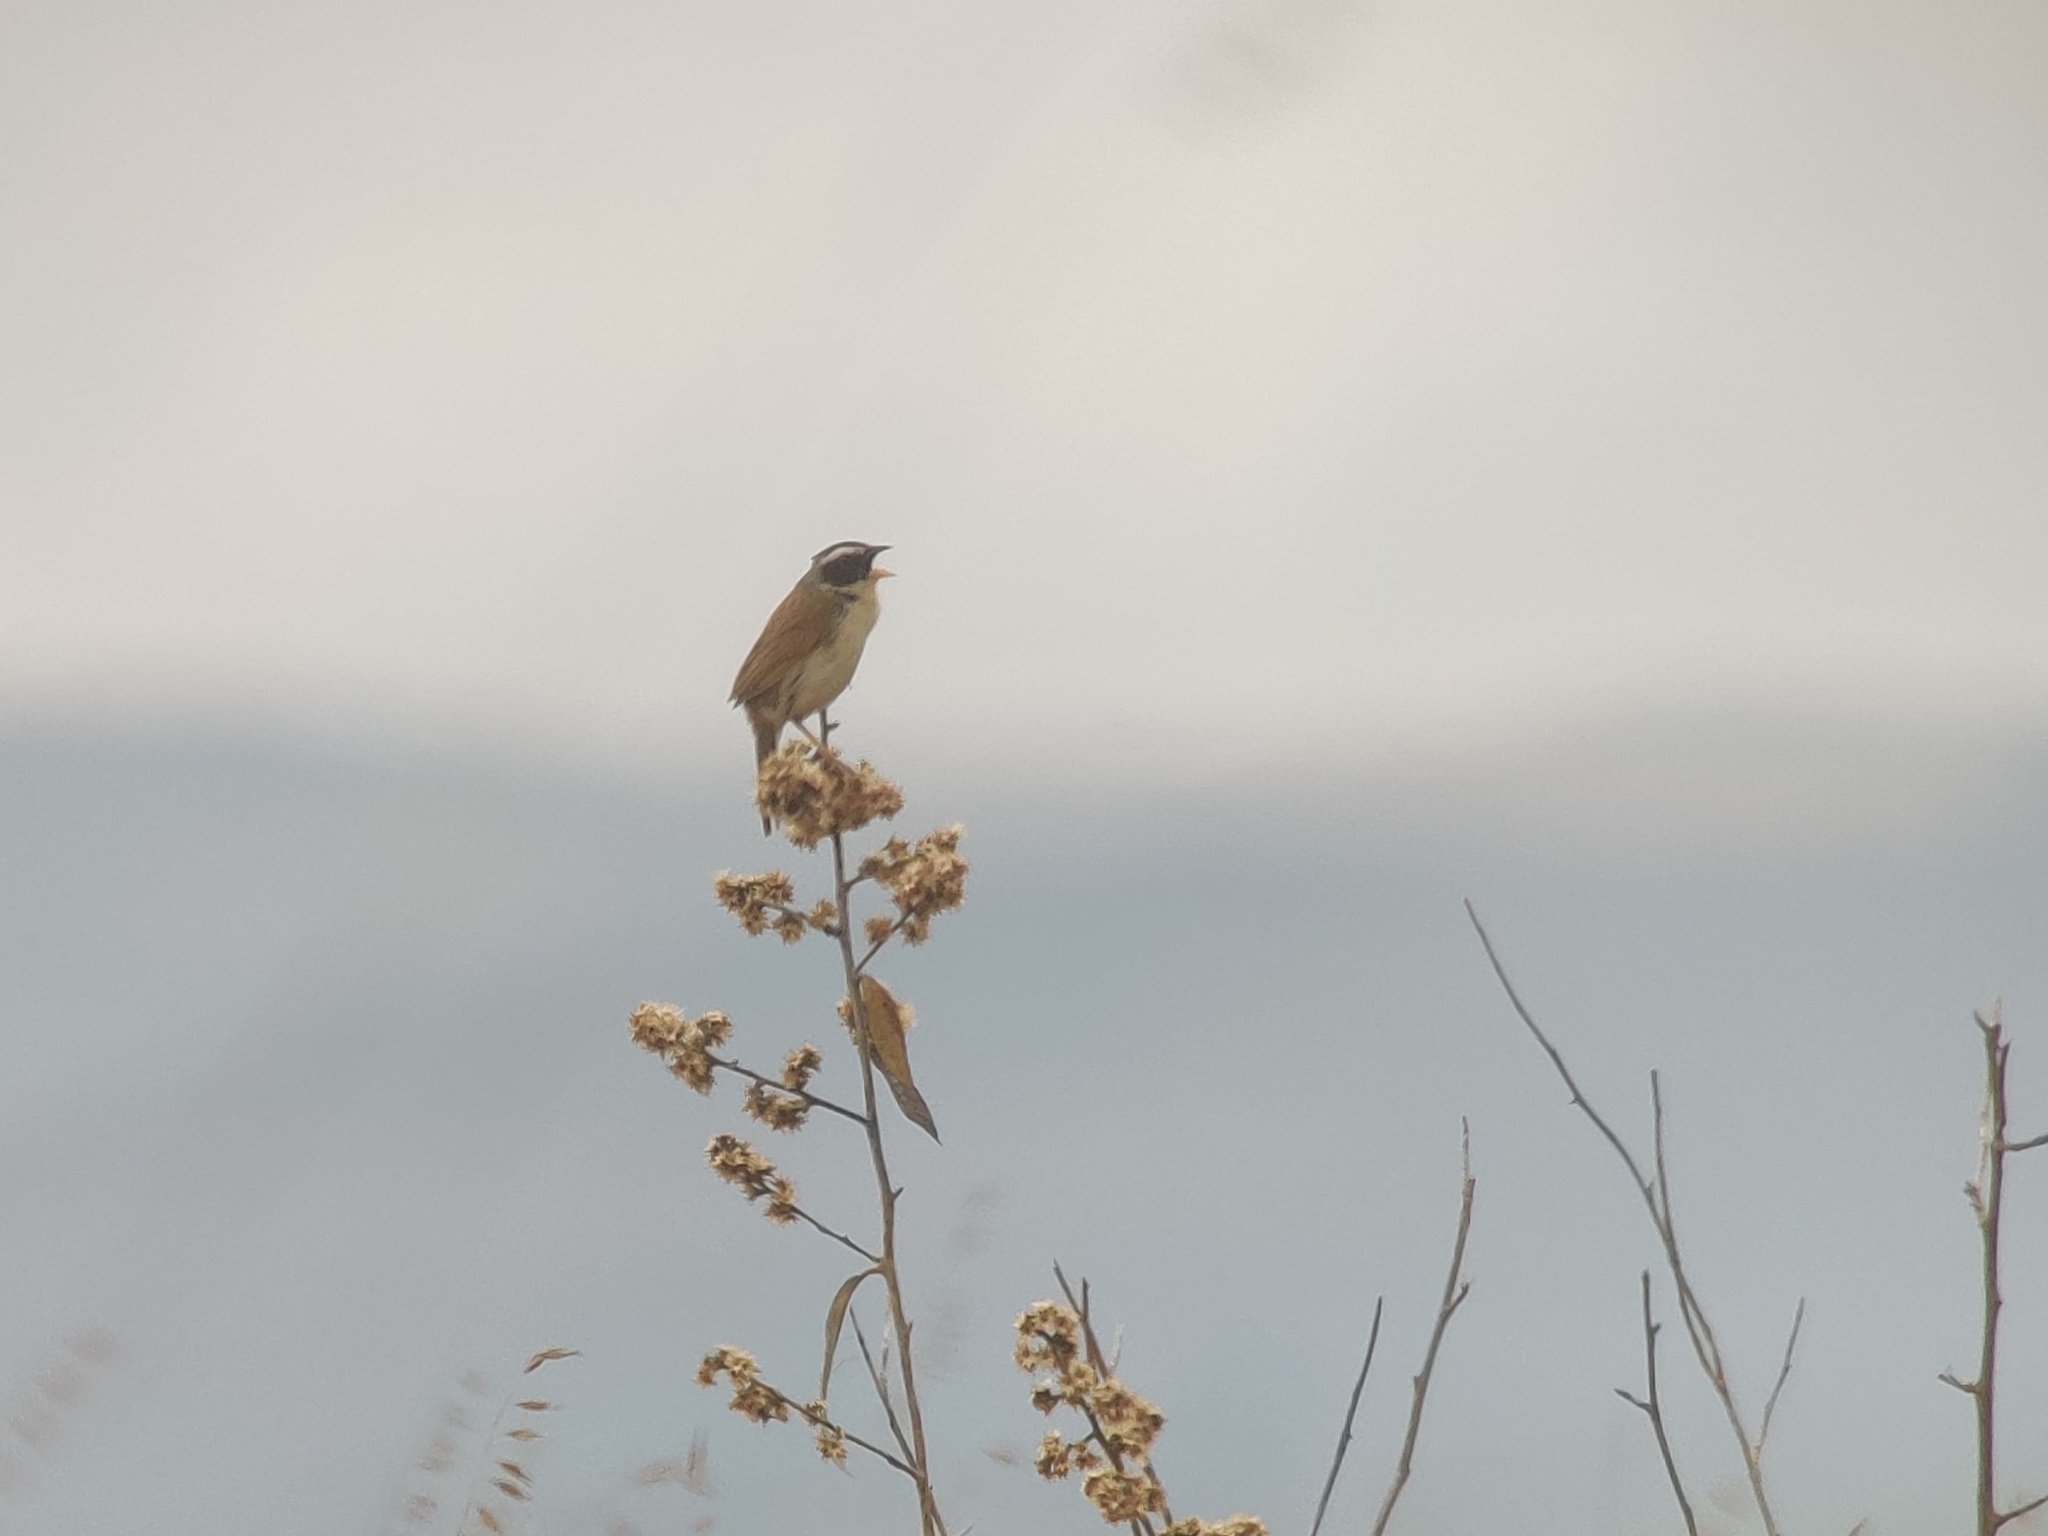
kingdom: Animalia
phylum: Chordata
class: Aves
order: Passeriformes
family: Thraupidae
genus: Coryphaspiza
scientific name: Coryphaspiza melanotis
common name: Black-masked finch
